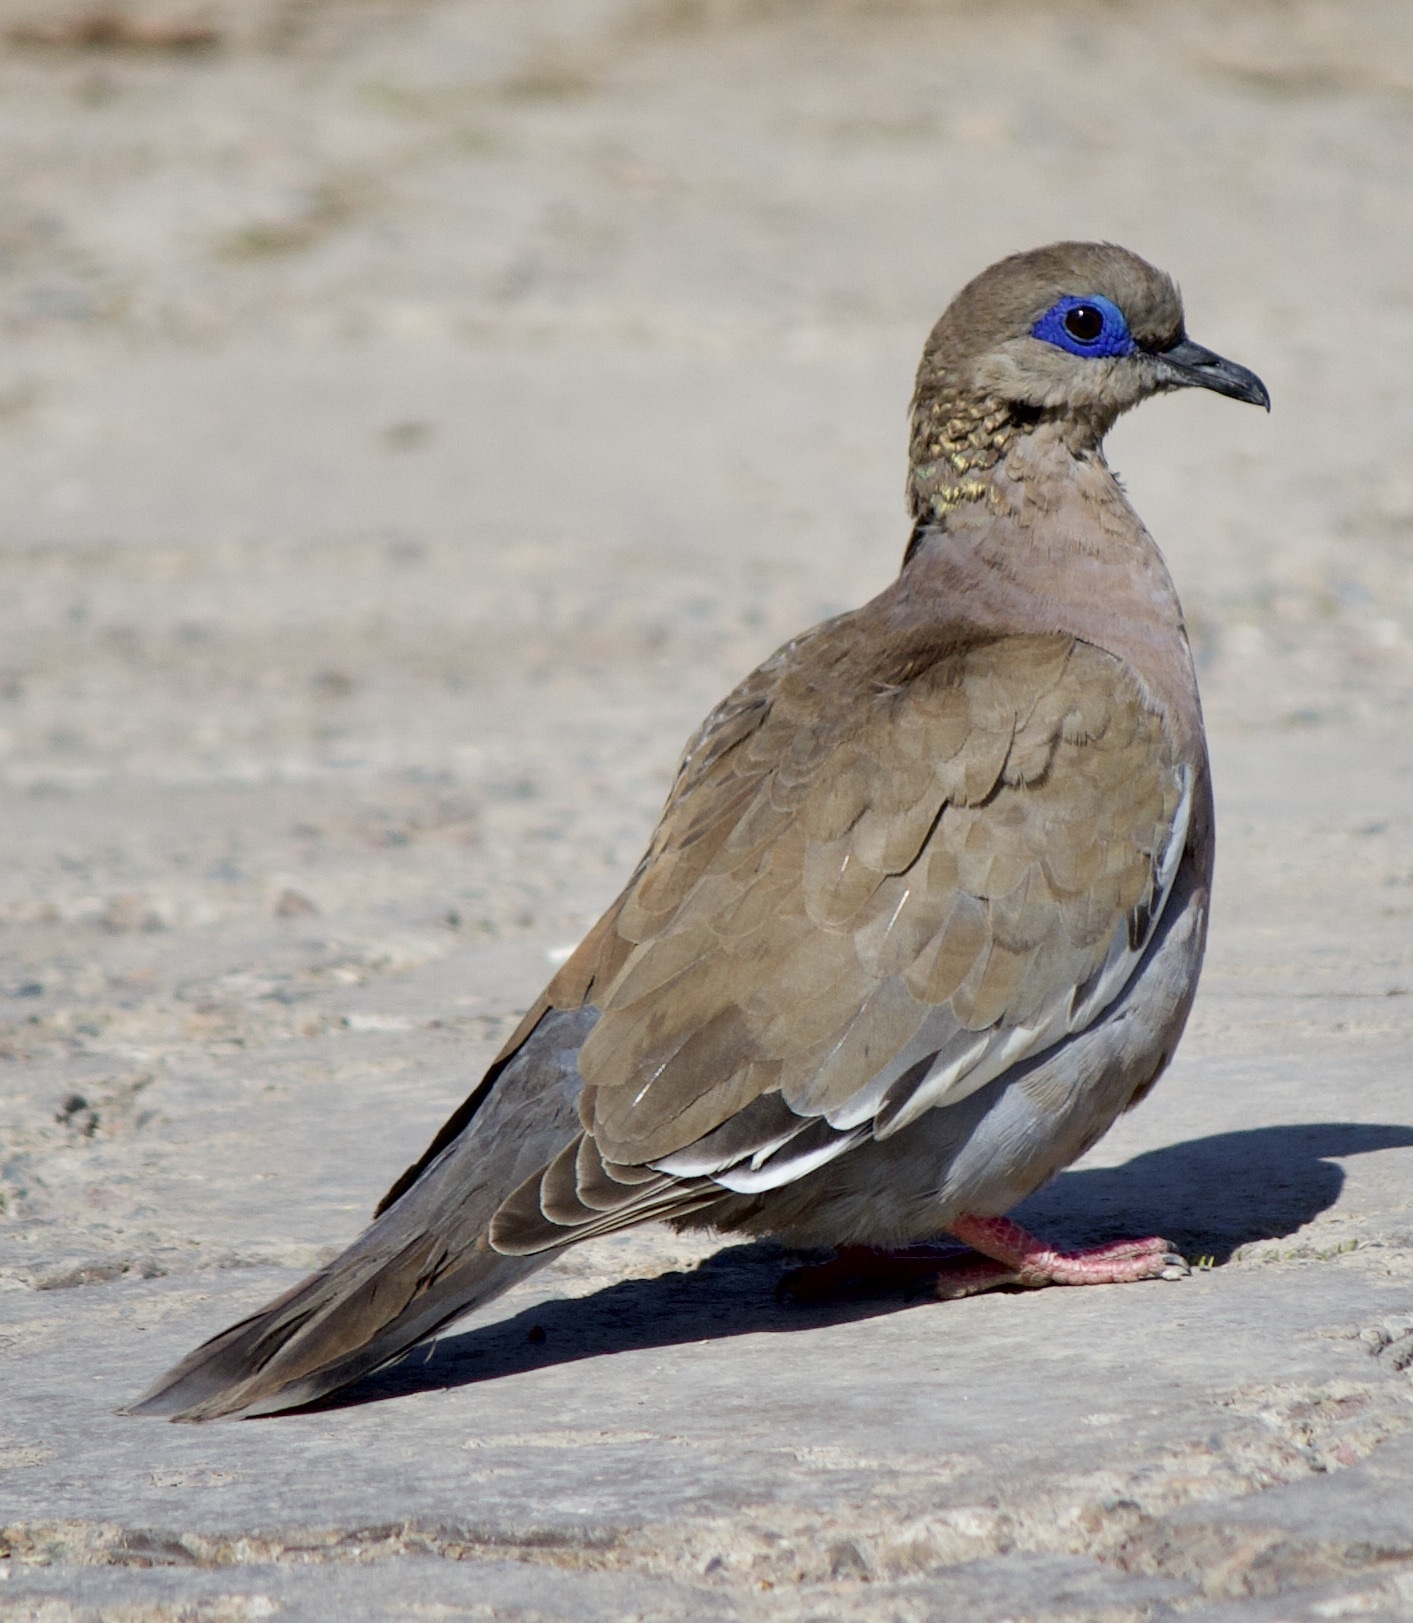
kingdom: Animalia
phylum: Chordata
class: Aves
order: Columbiformes
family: Columbidae
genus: Zenaida
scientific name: Zenaida meloda
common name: West peruvian dove
